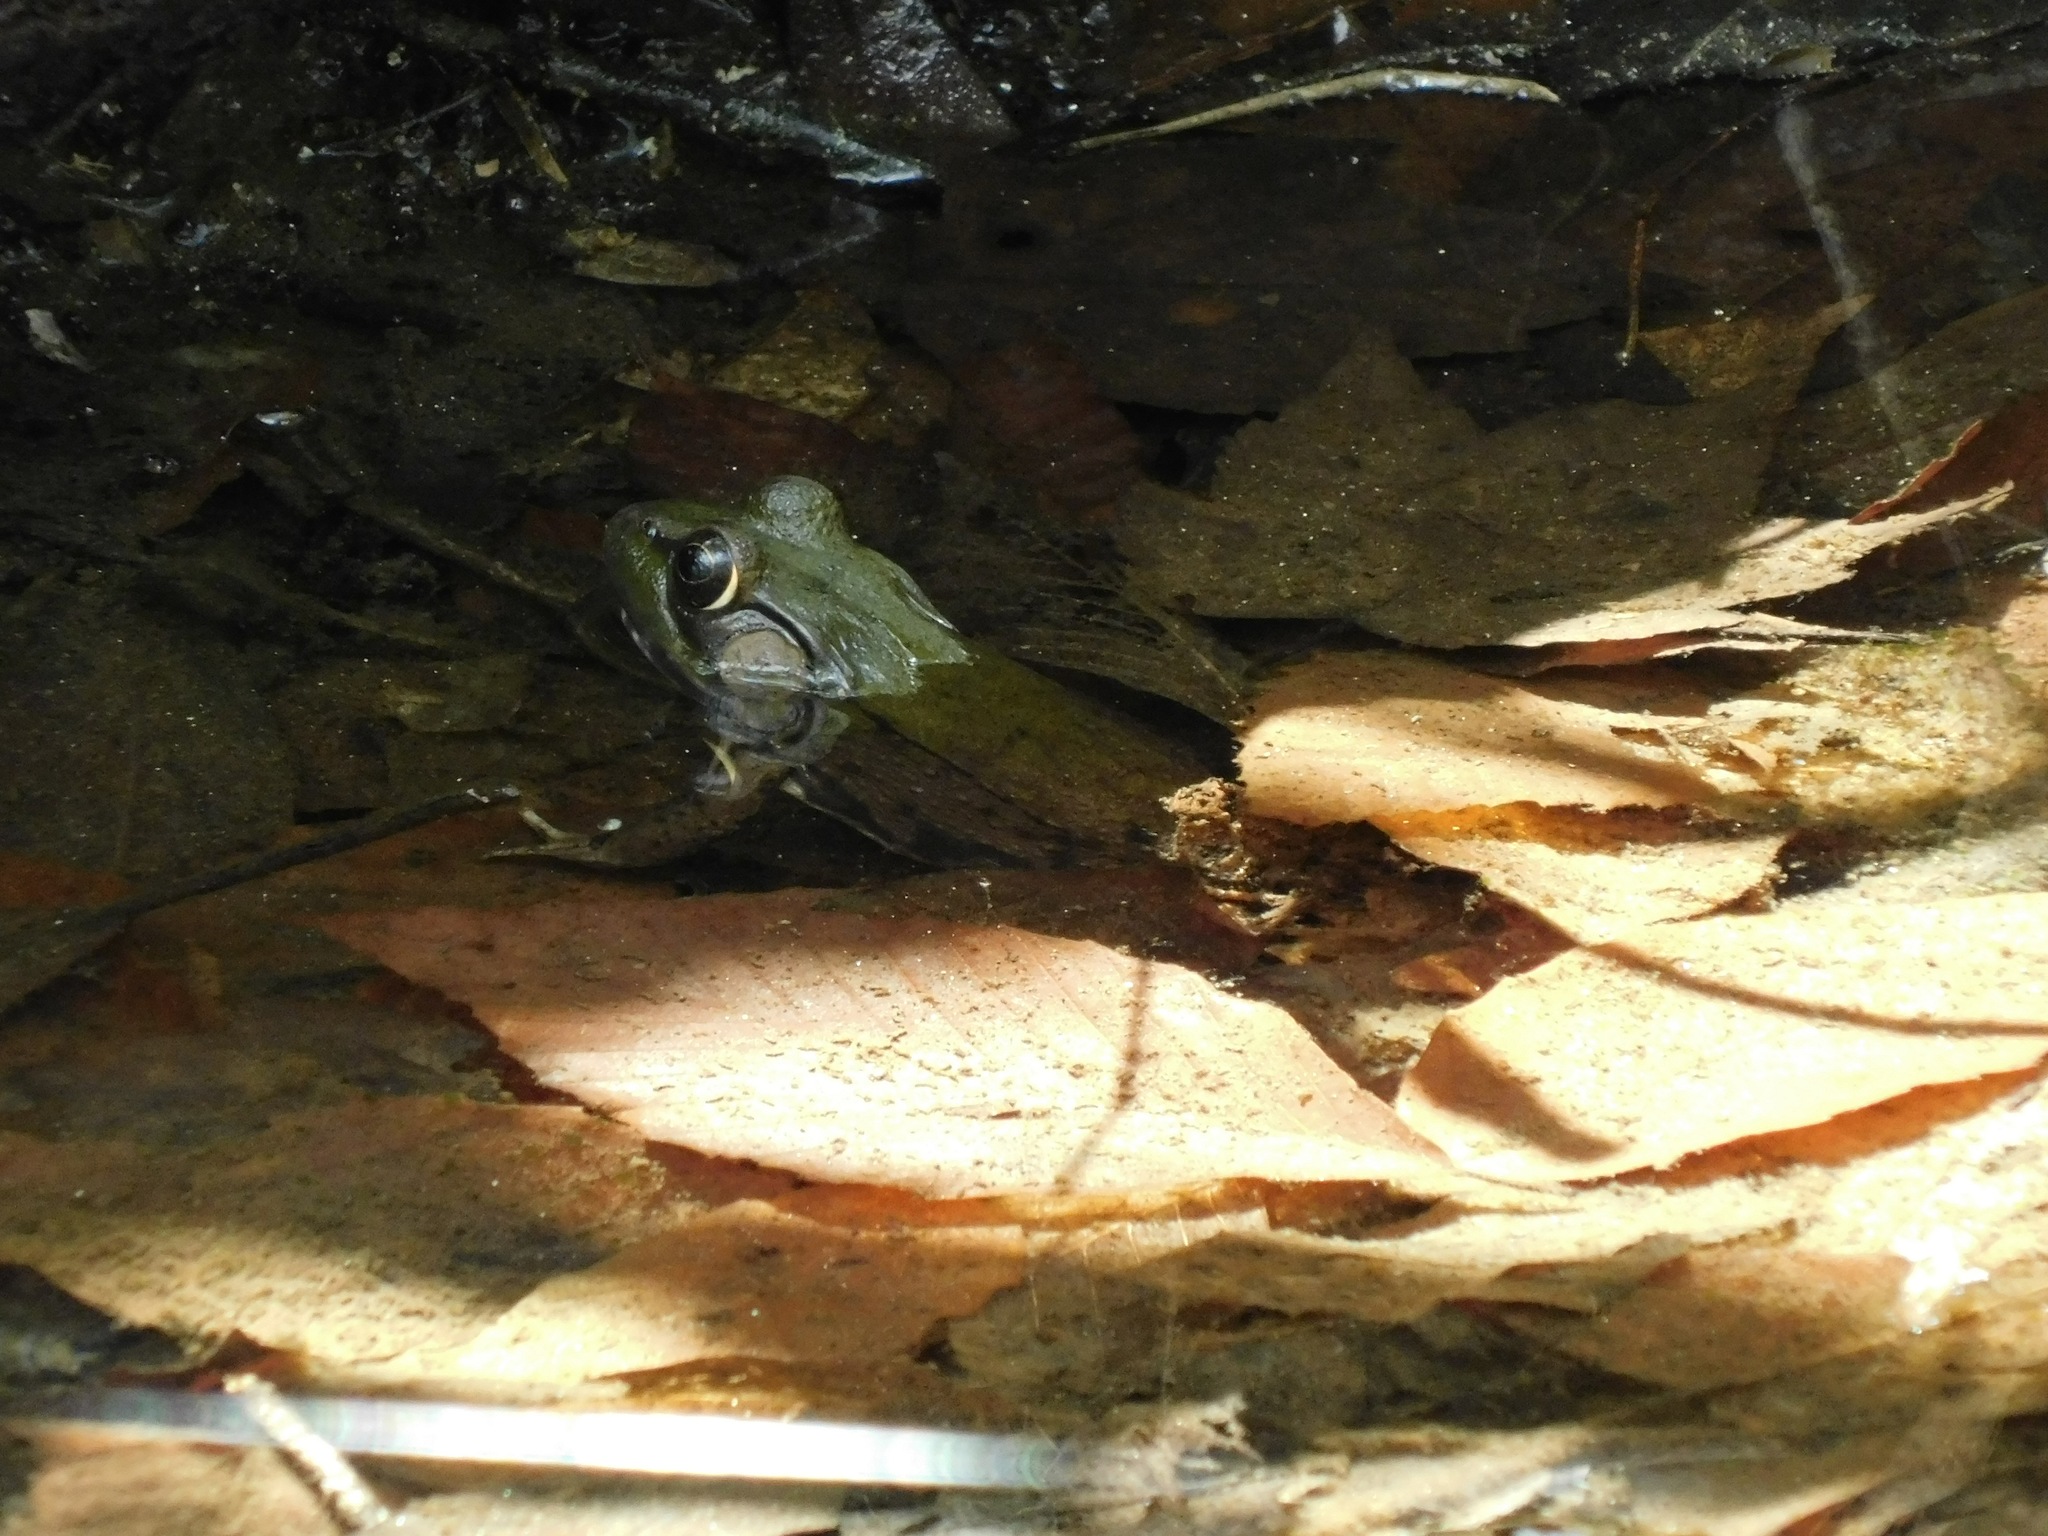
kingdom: Animalia
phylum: Chordata
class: Amphibia
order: Anura
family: Ranidae
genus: Lithobates
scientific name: Lithobates clamitans
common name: Green frog
